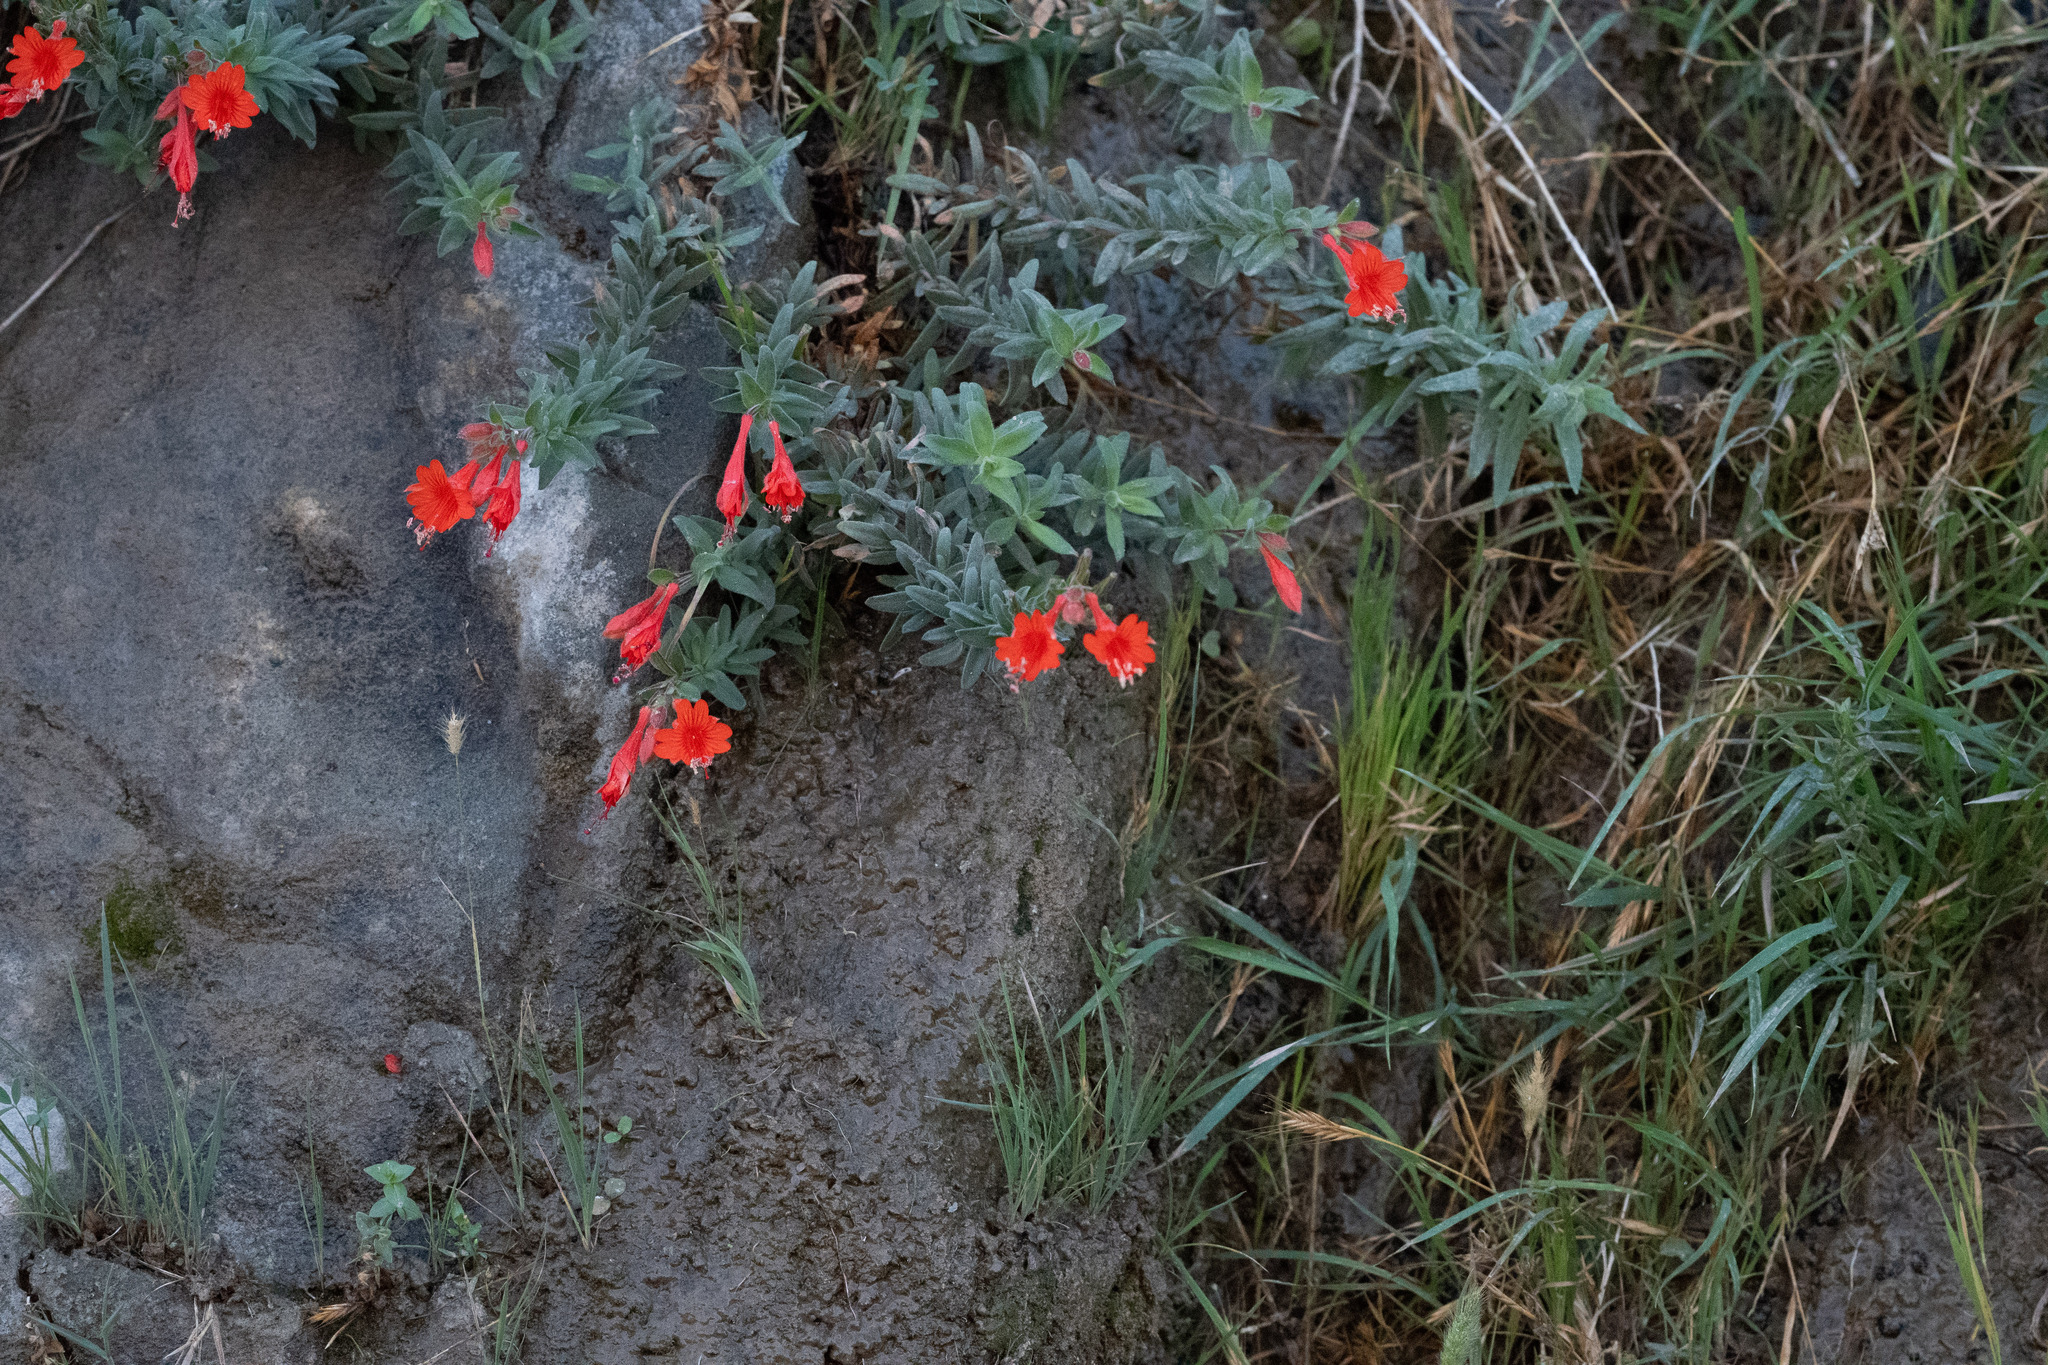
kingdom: Plantae
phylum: Tracheophyta
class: Magnoliopsida
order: Myrtales
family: Onagraceae
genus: Epilobium
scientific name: Epilobium canum
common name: California-fuchsia
